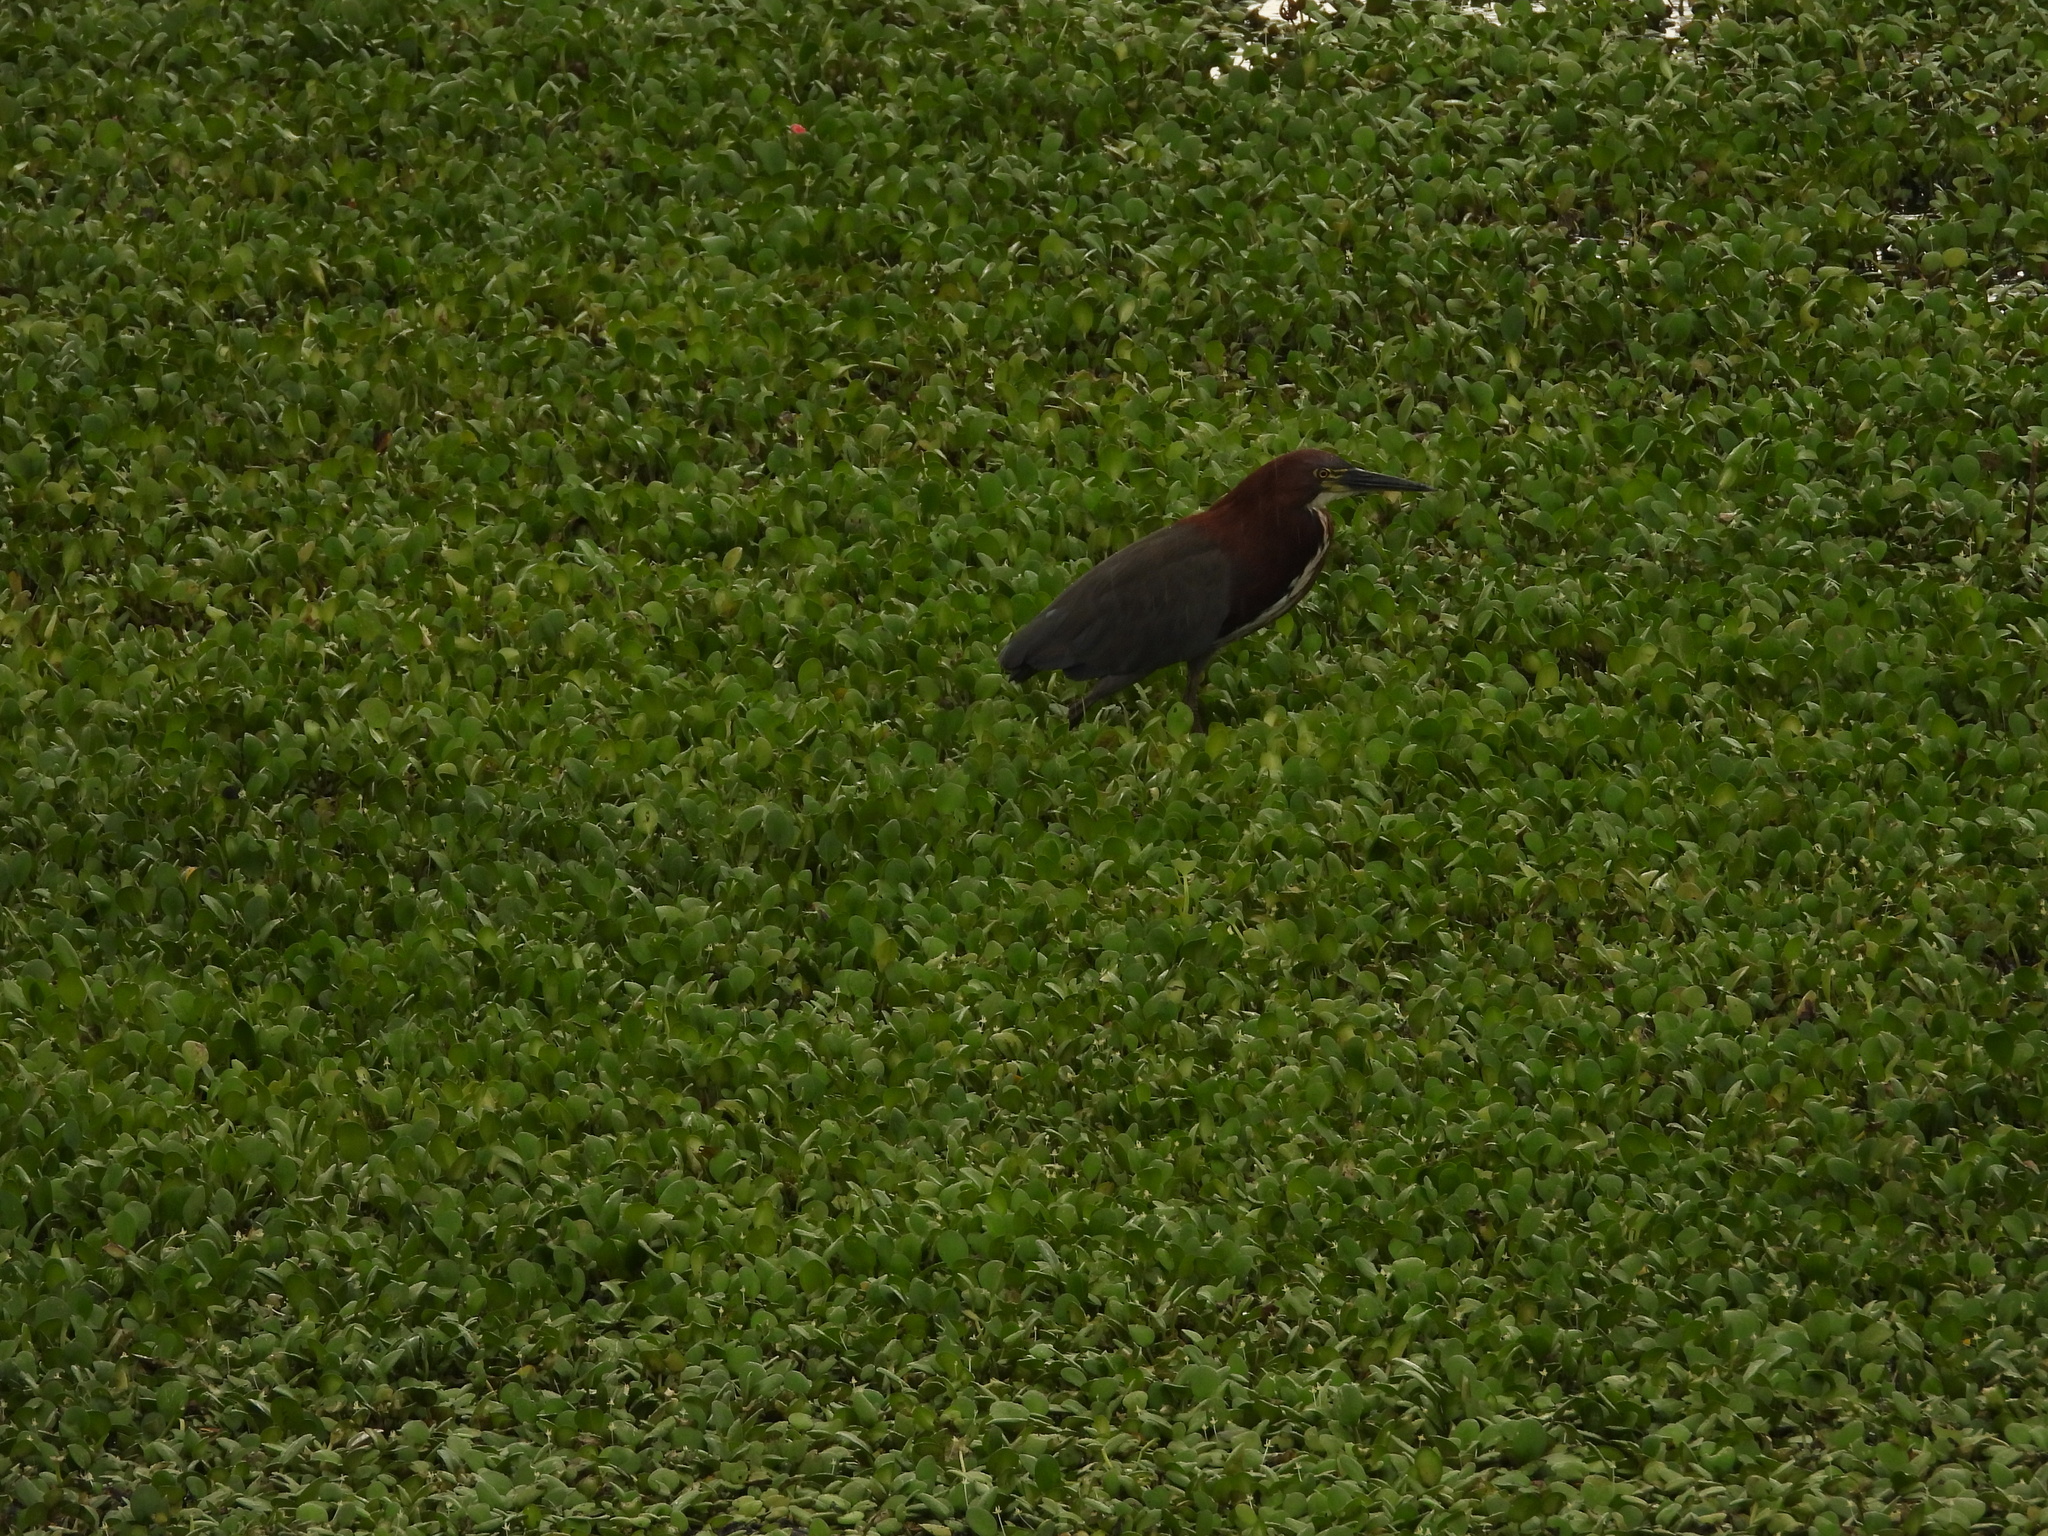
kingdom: Animalia
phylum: Chordata
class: Aves
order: Pelecaniformes
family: Ardeidae
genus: Tigrisoma
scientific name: Tigrisoma lineatum
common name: Rufescent tiger-heron
